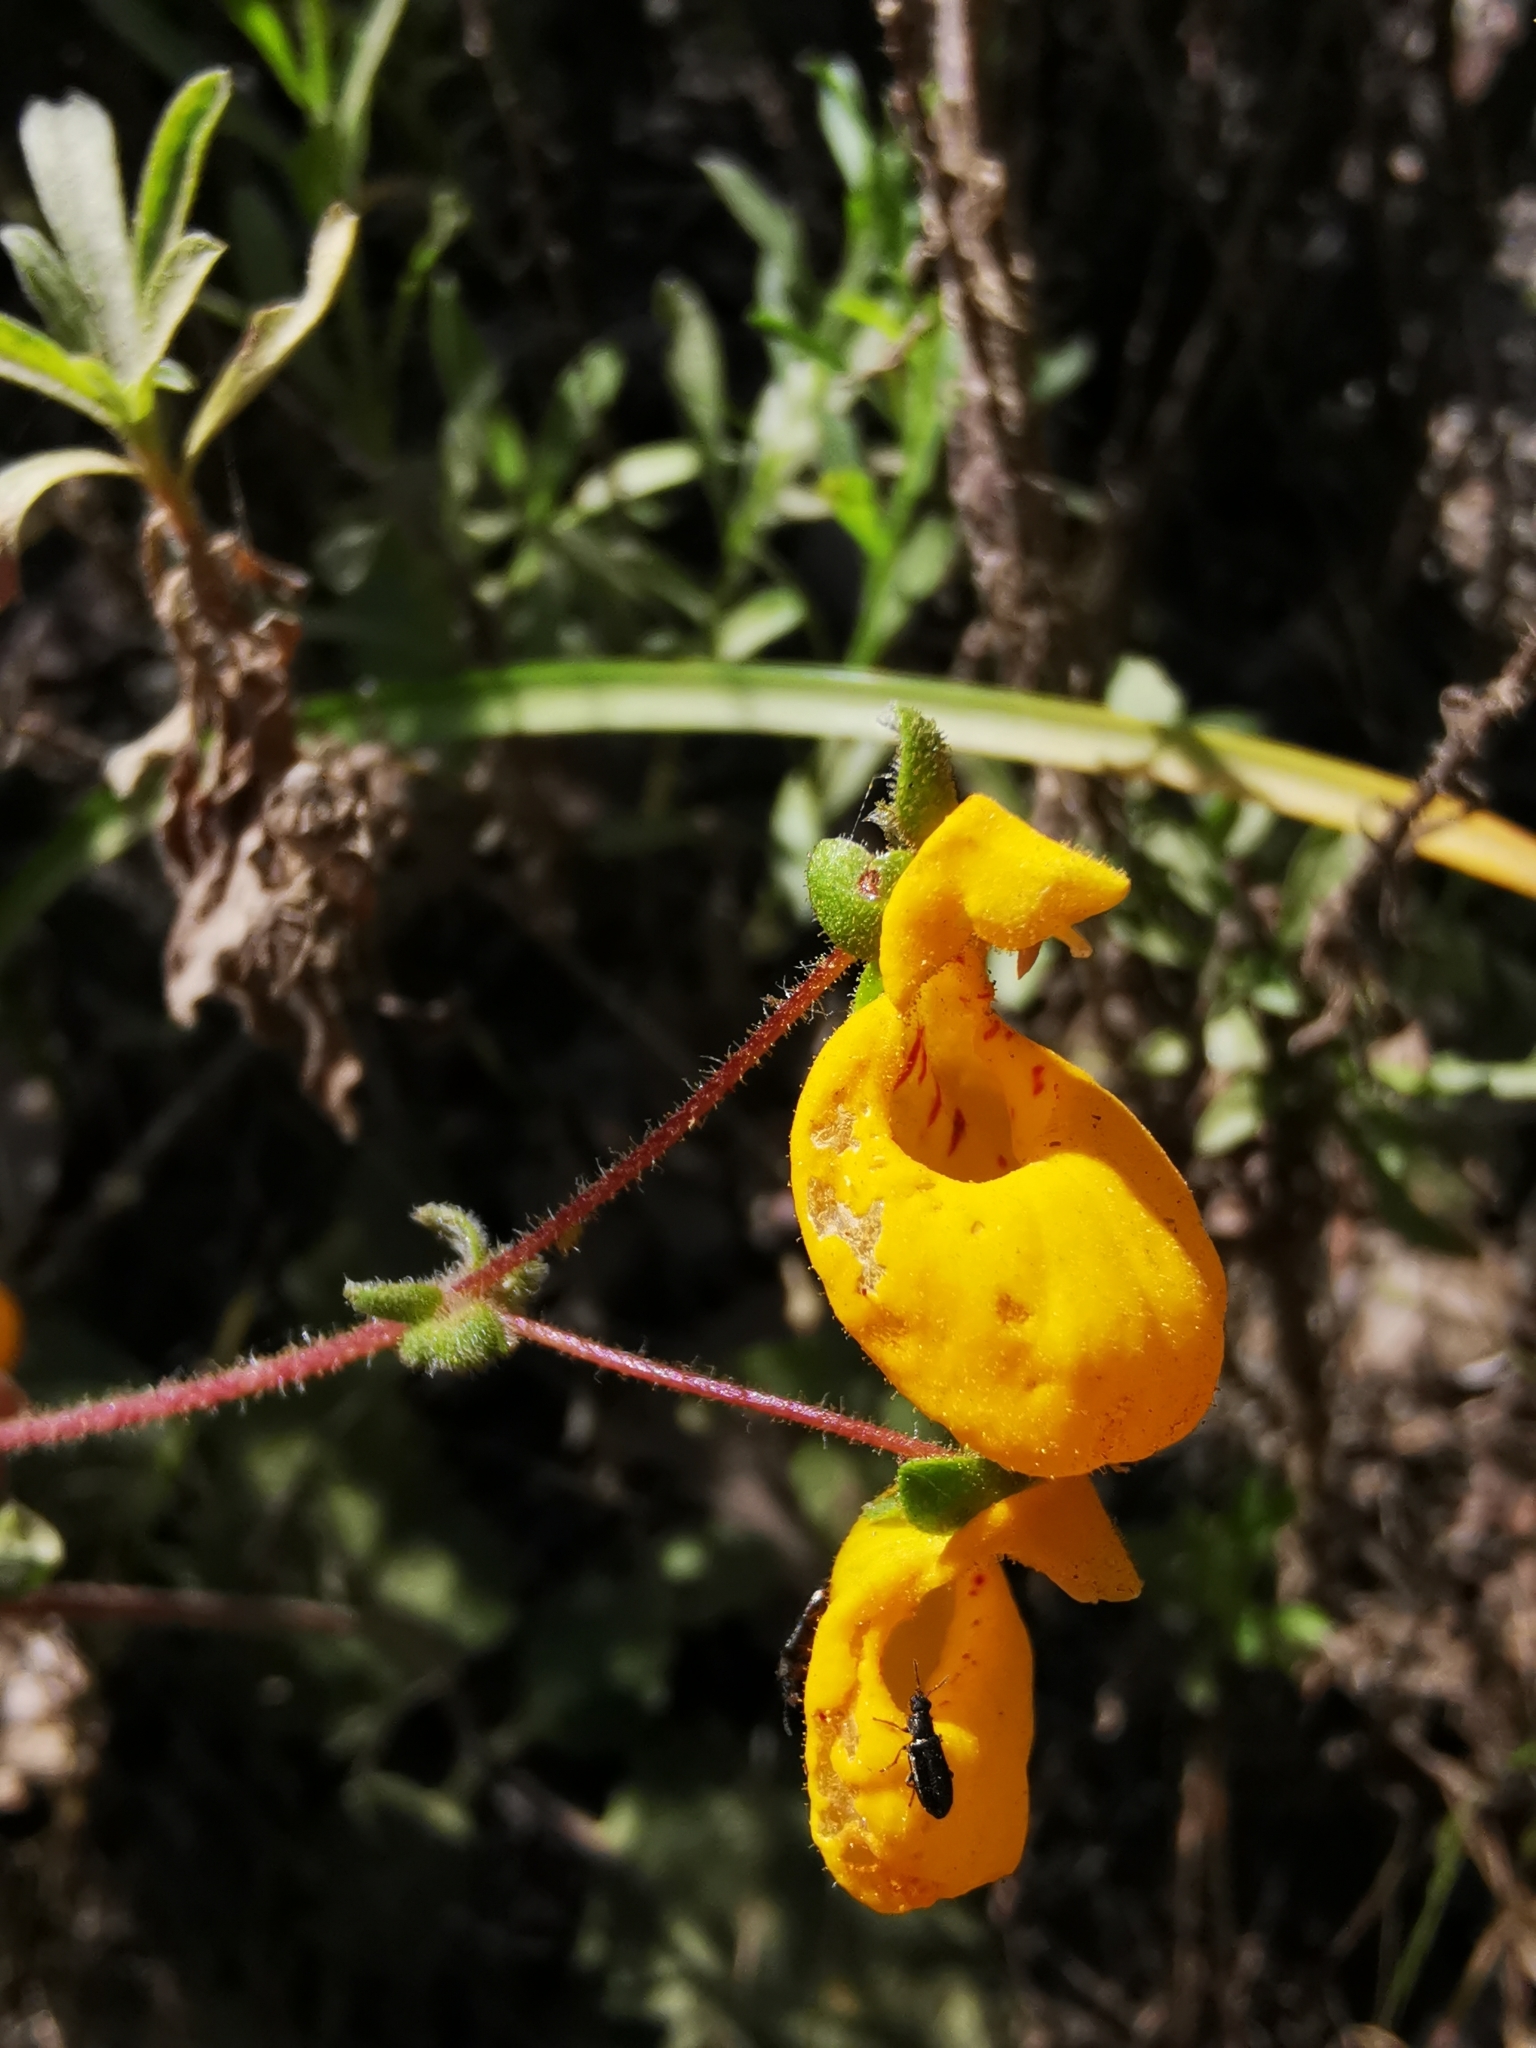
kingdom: Plantae
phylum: Tracheophyta
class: Magnoliopsida
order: Lamiales
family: Calceolariaceae
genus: Calceolaria
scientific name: Calceolaria corymbosa
